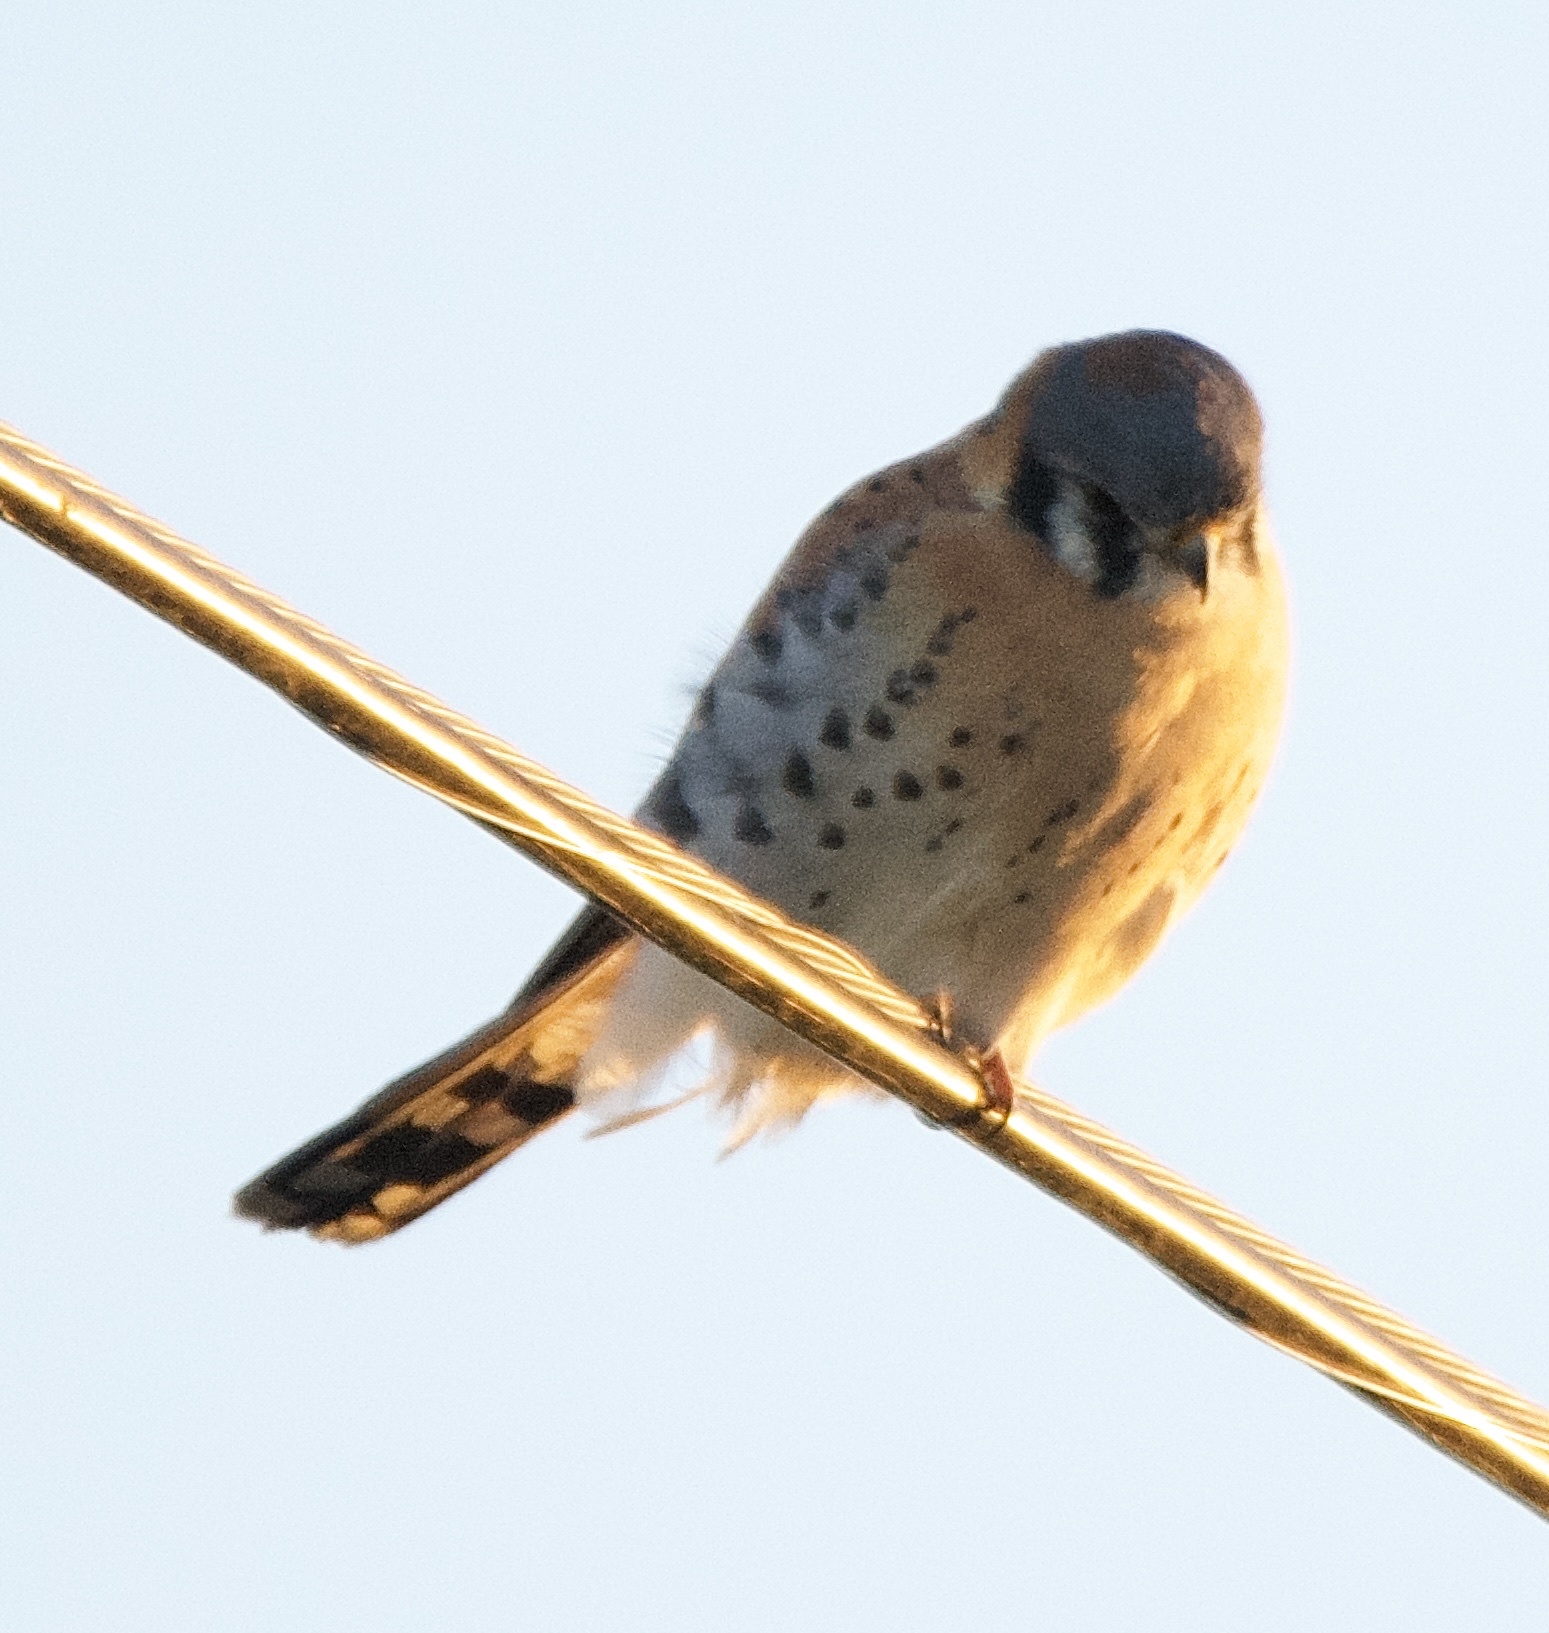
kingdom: Animalia
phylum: Chordata
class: Aves
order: Falconiformes
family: Falconidae
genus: Falco
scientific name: Falco sparverius
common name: American kestrel
